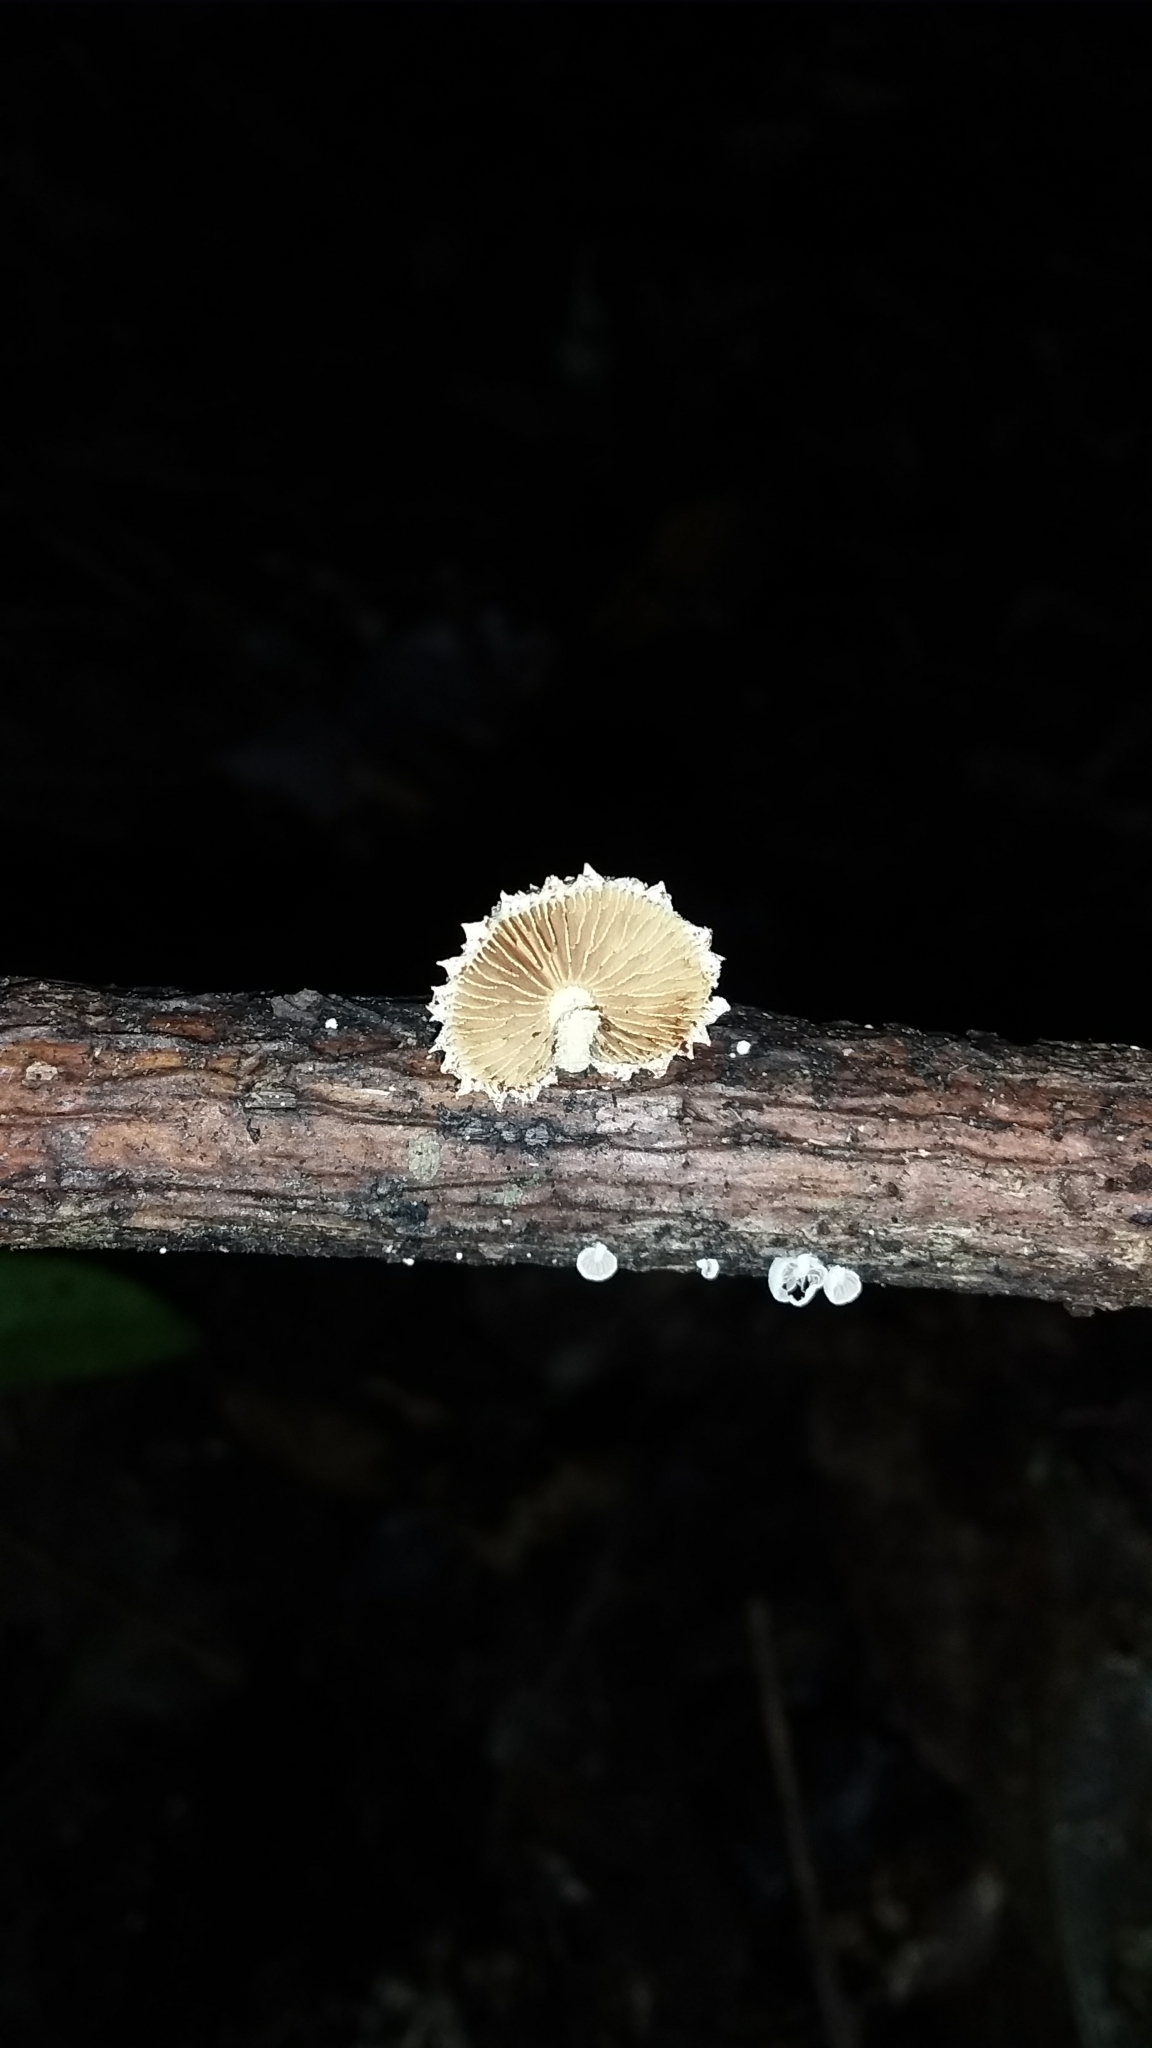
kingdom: Fungi
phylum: Basidiomycota
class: Agaricomycetes
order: Agaricales
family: Crepidotaceae
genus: Pleuroflammula
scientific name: Pleuroflammula praestans
